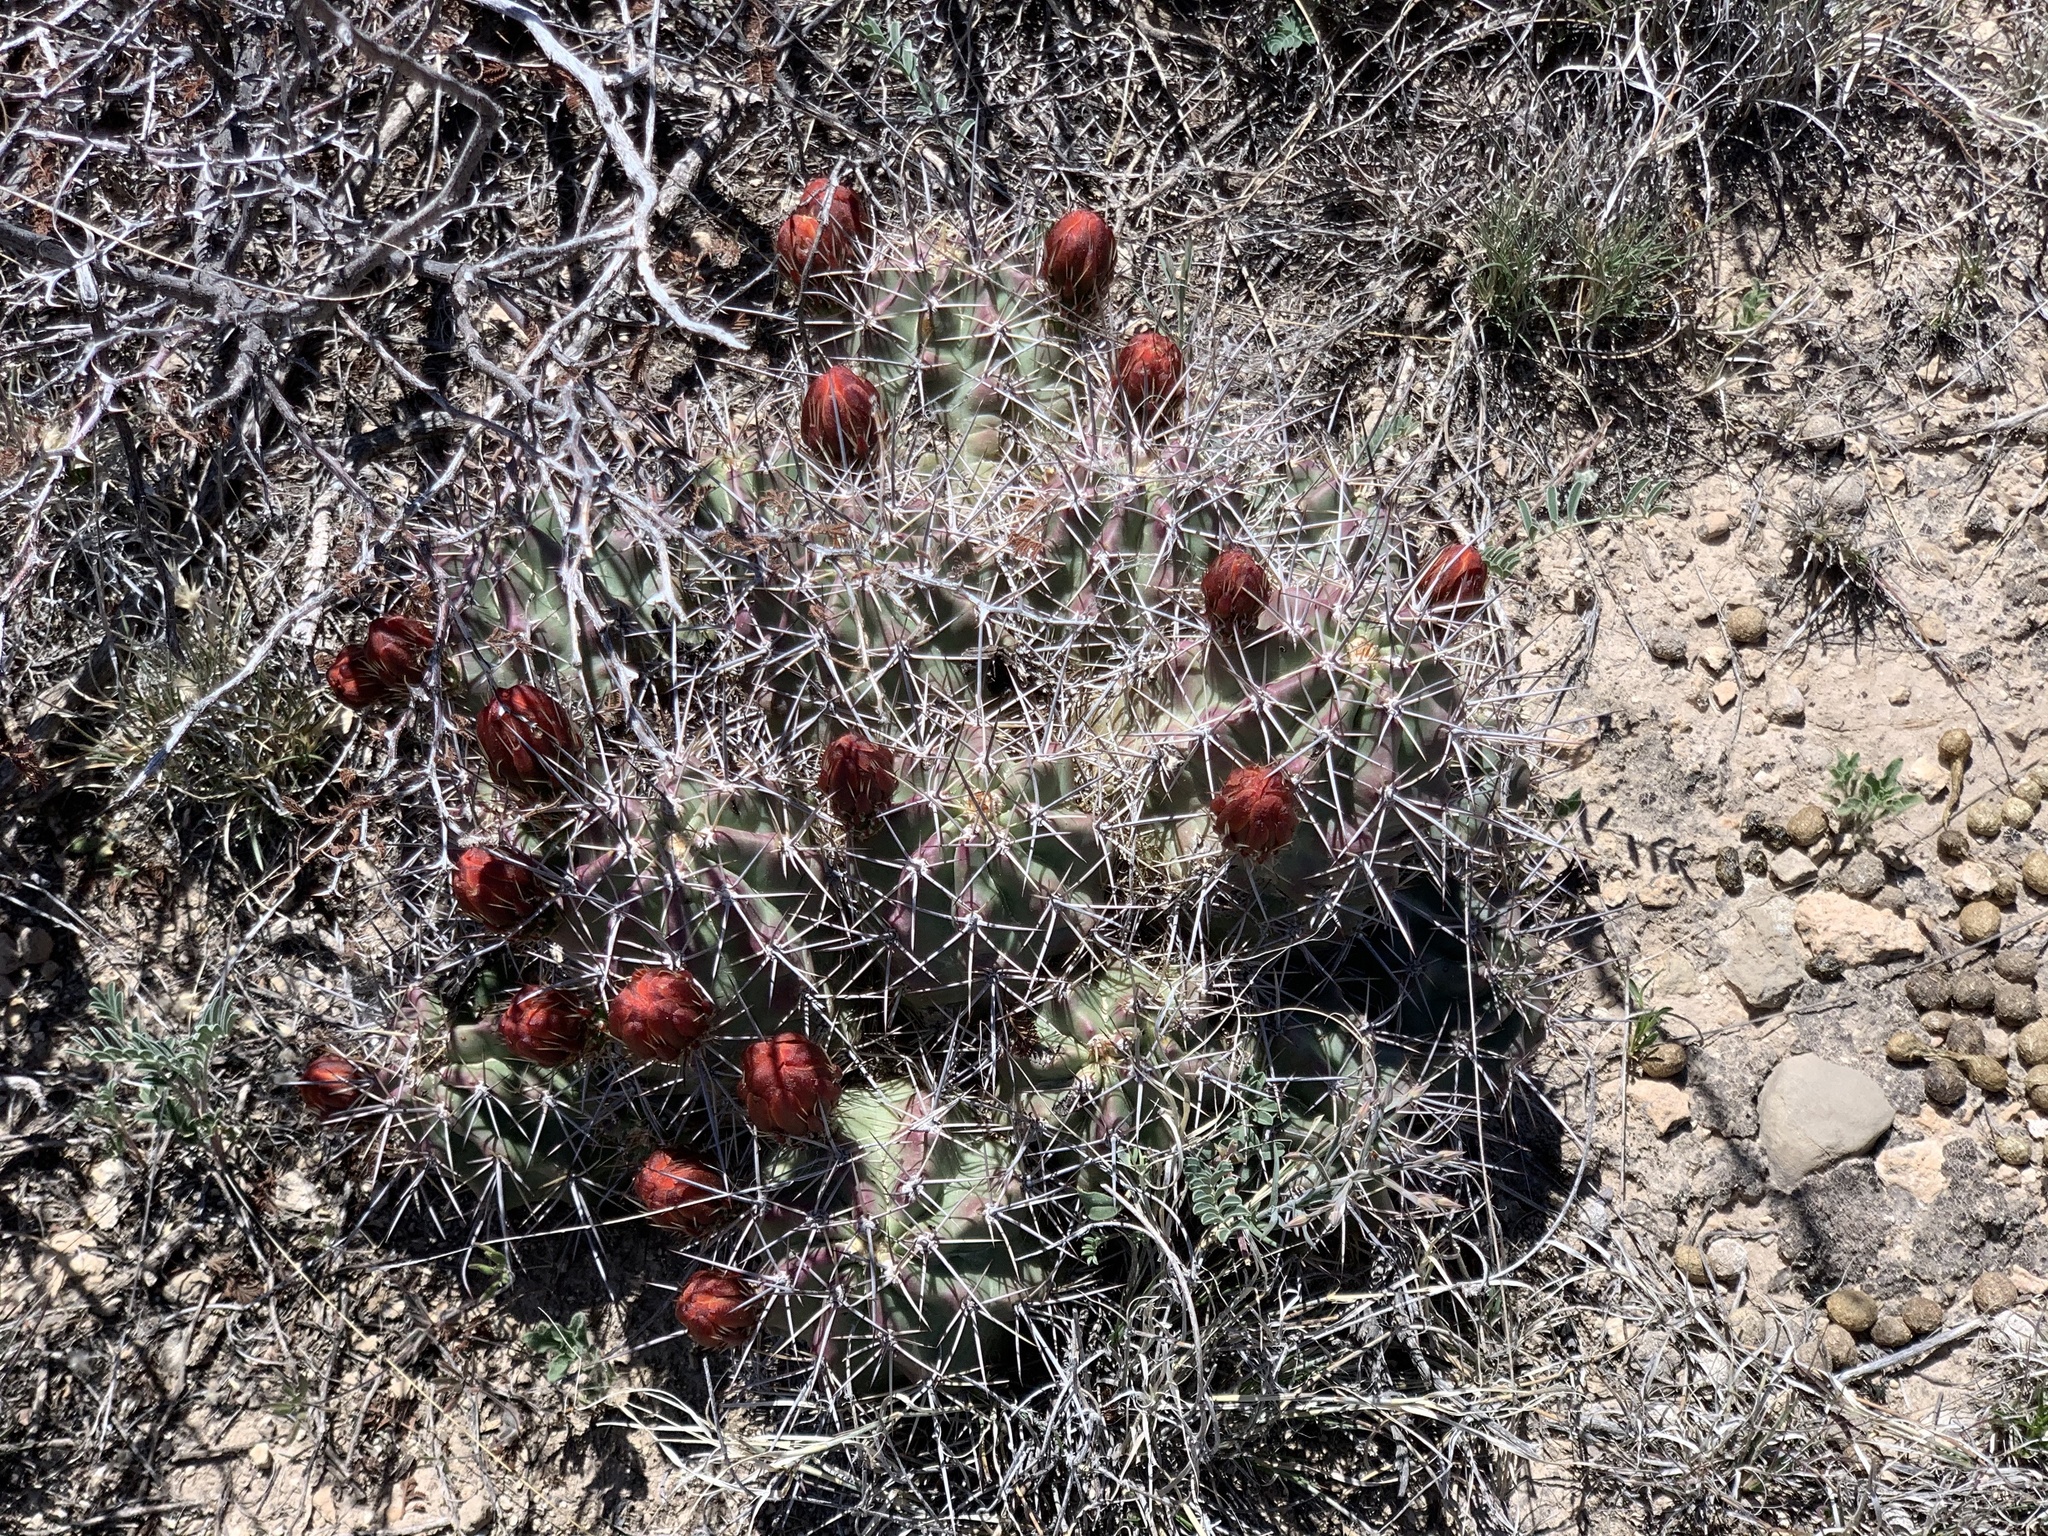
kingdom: Plantae
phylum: Tracheophyta
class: Magnoliopsida
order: Caryophyllales
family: Cactaceae
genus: Echinocereus
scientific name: Echinocereus coccineus
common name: Scarlet hedgehog cactus
